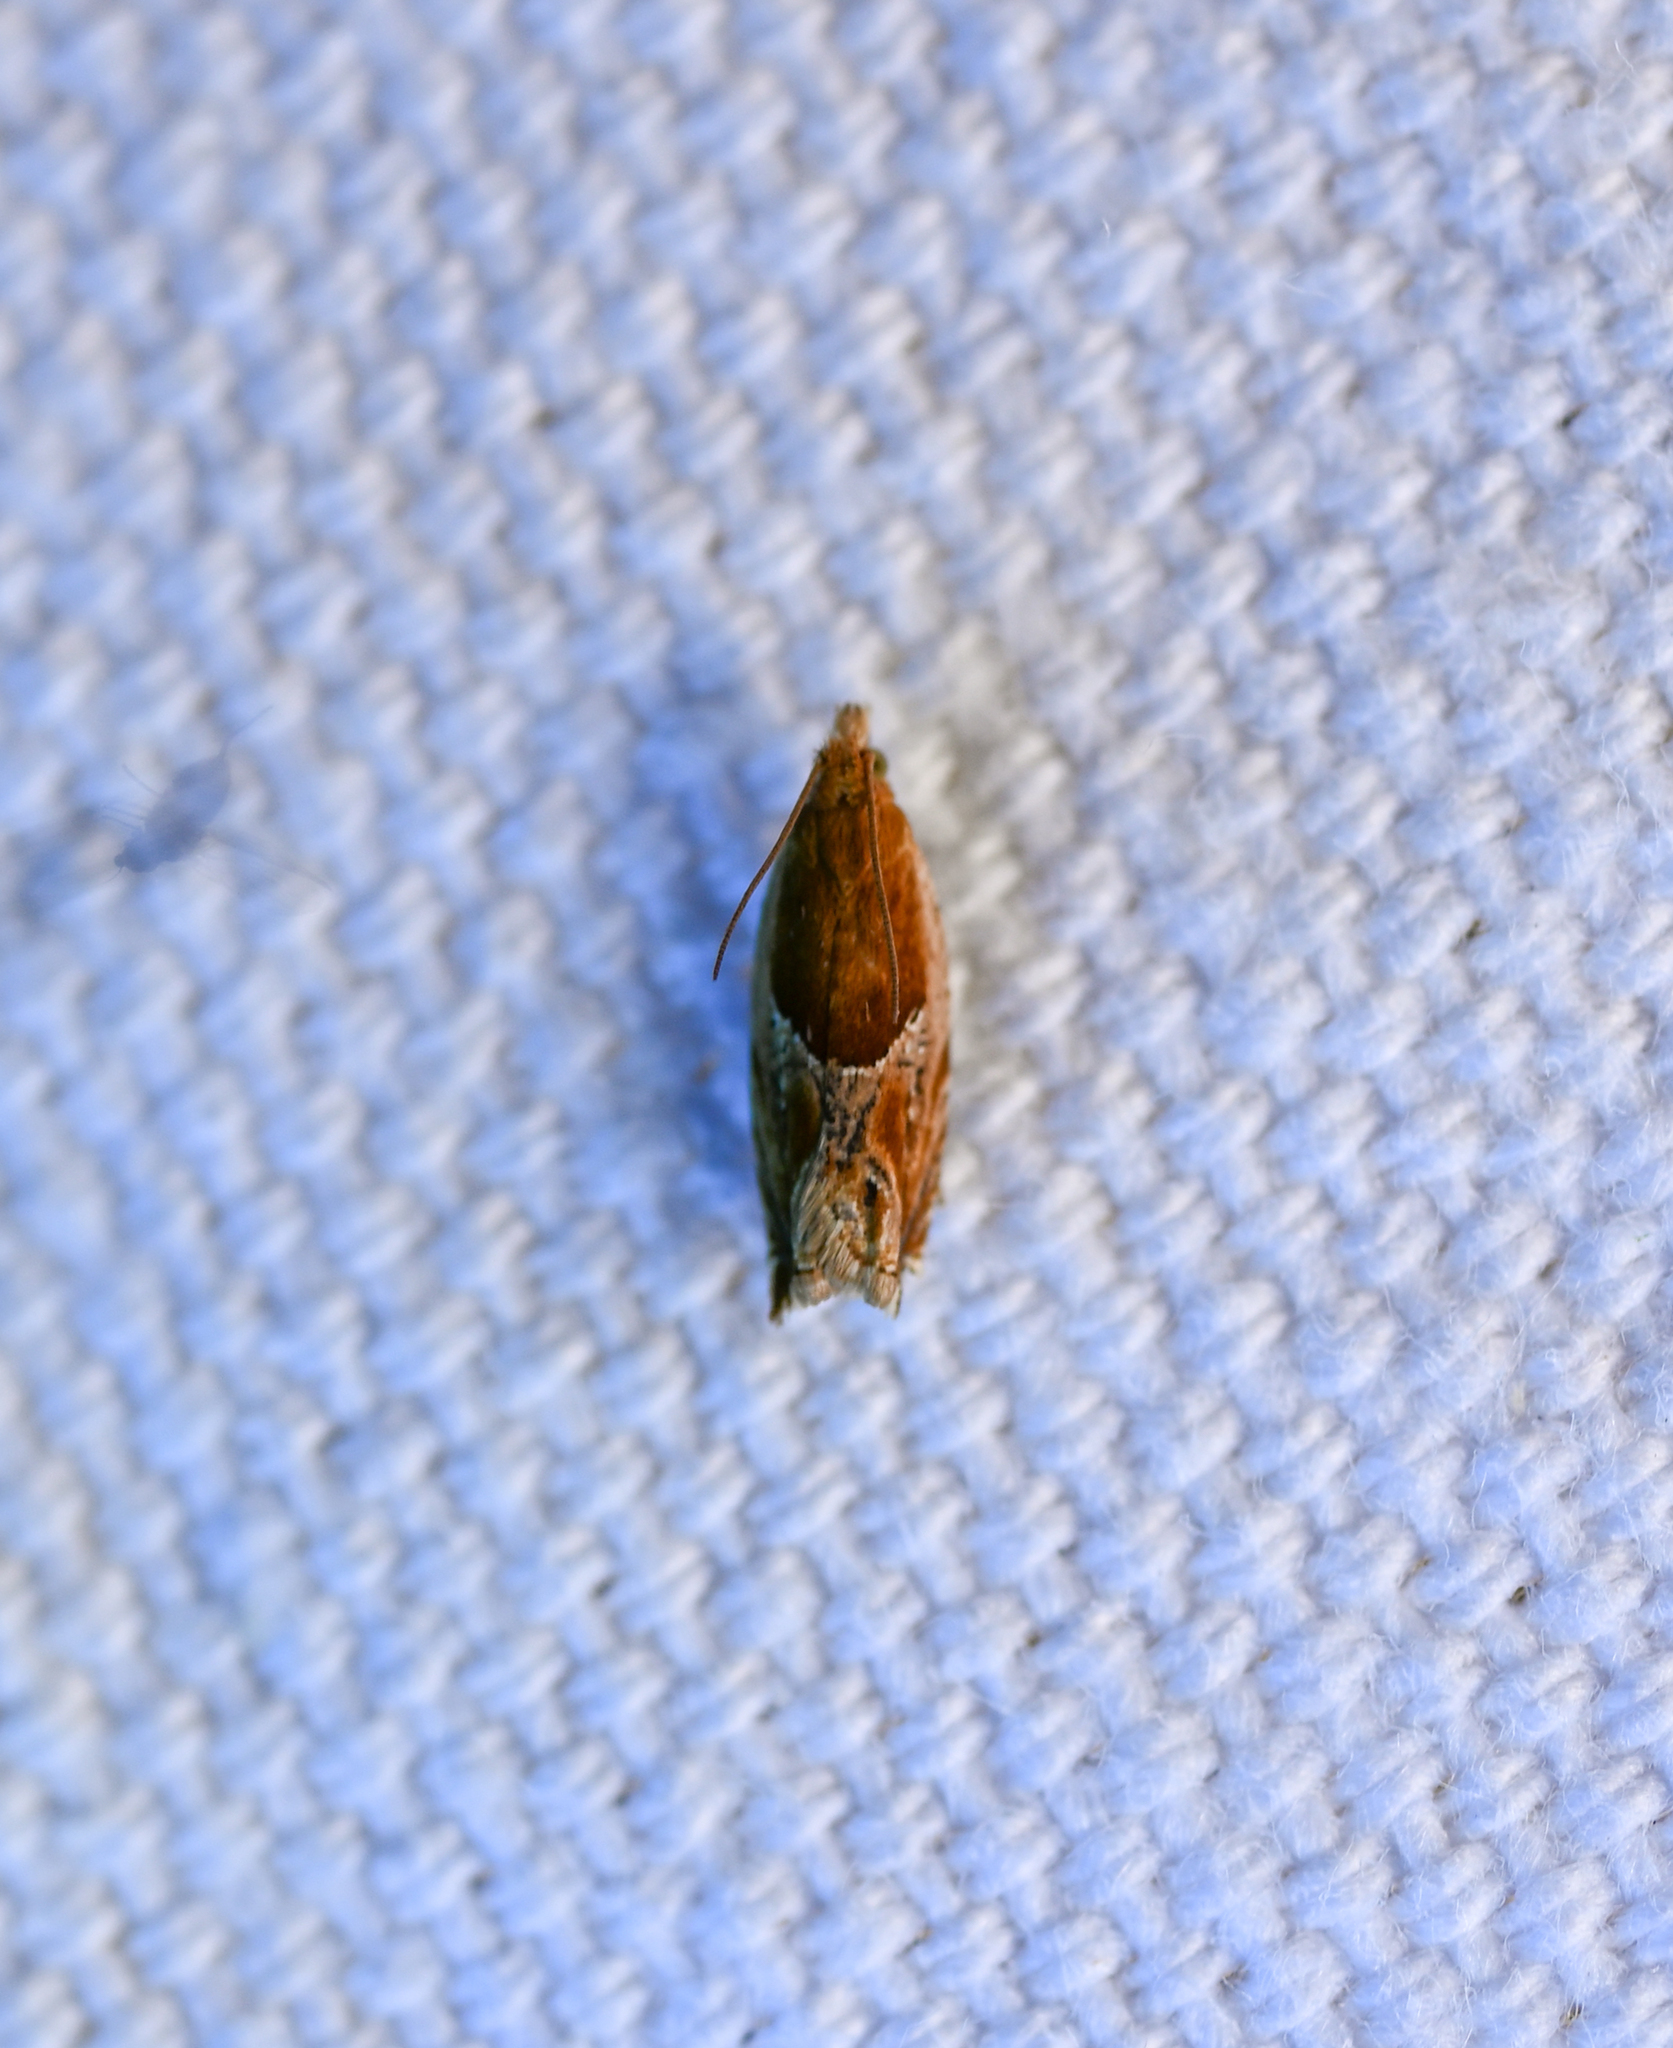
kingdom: Animalia
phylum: Arthropoda
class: Insecta
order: Lepidoptera
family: Tortricidae
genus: Ancylis
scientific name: Ancylis comptana
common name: Little roller
